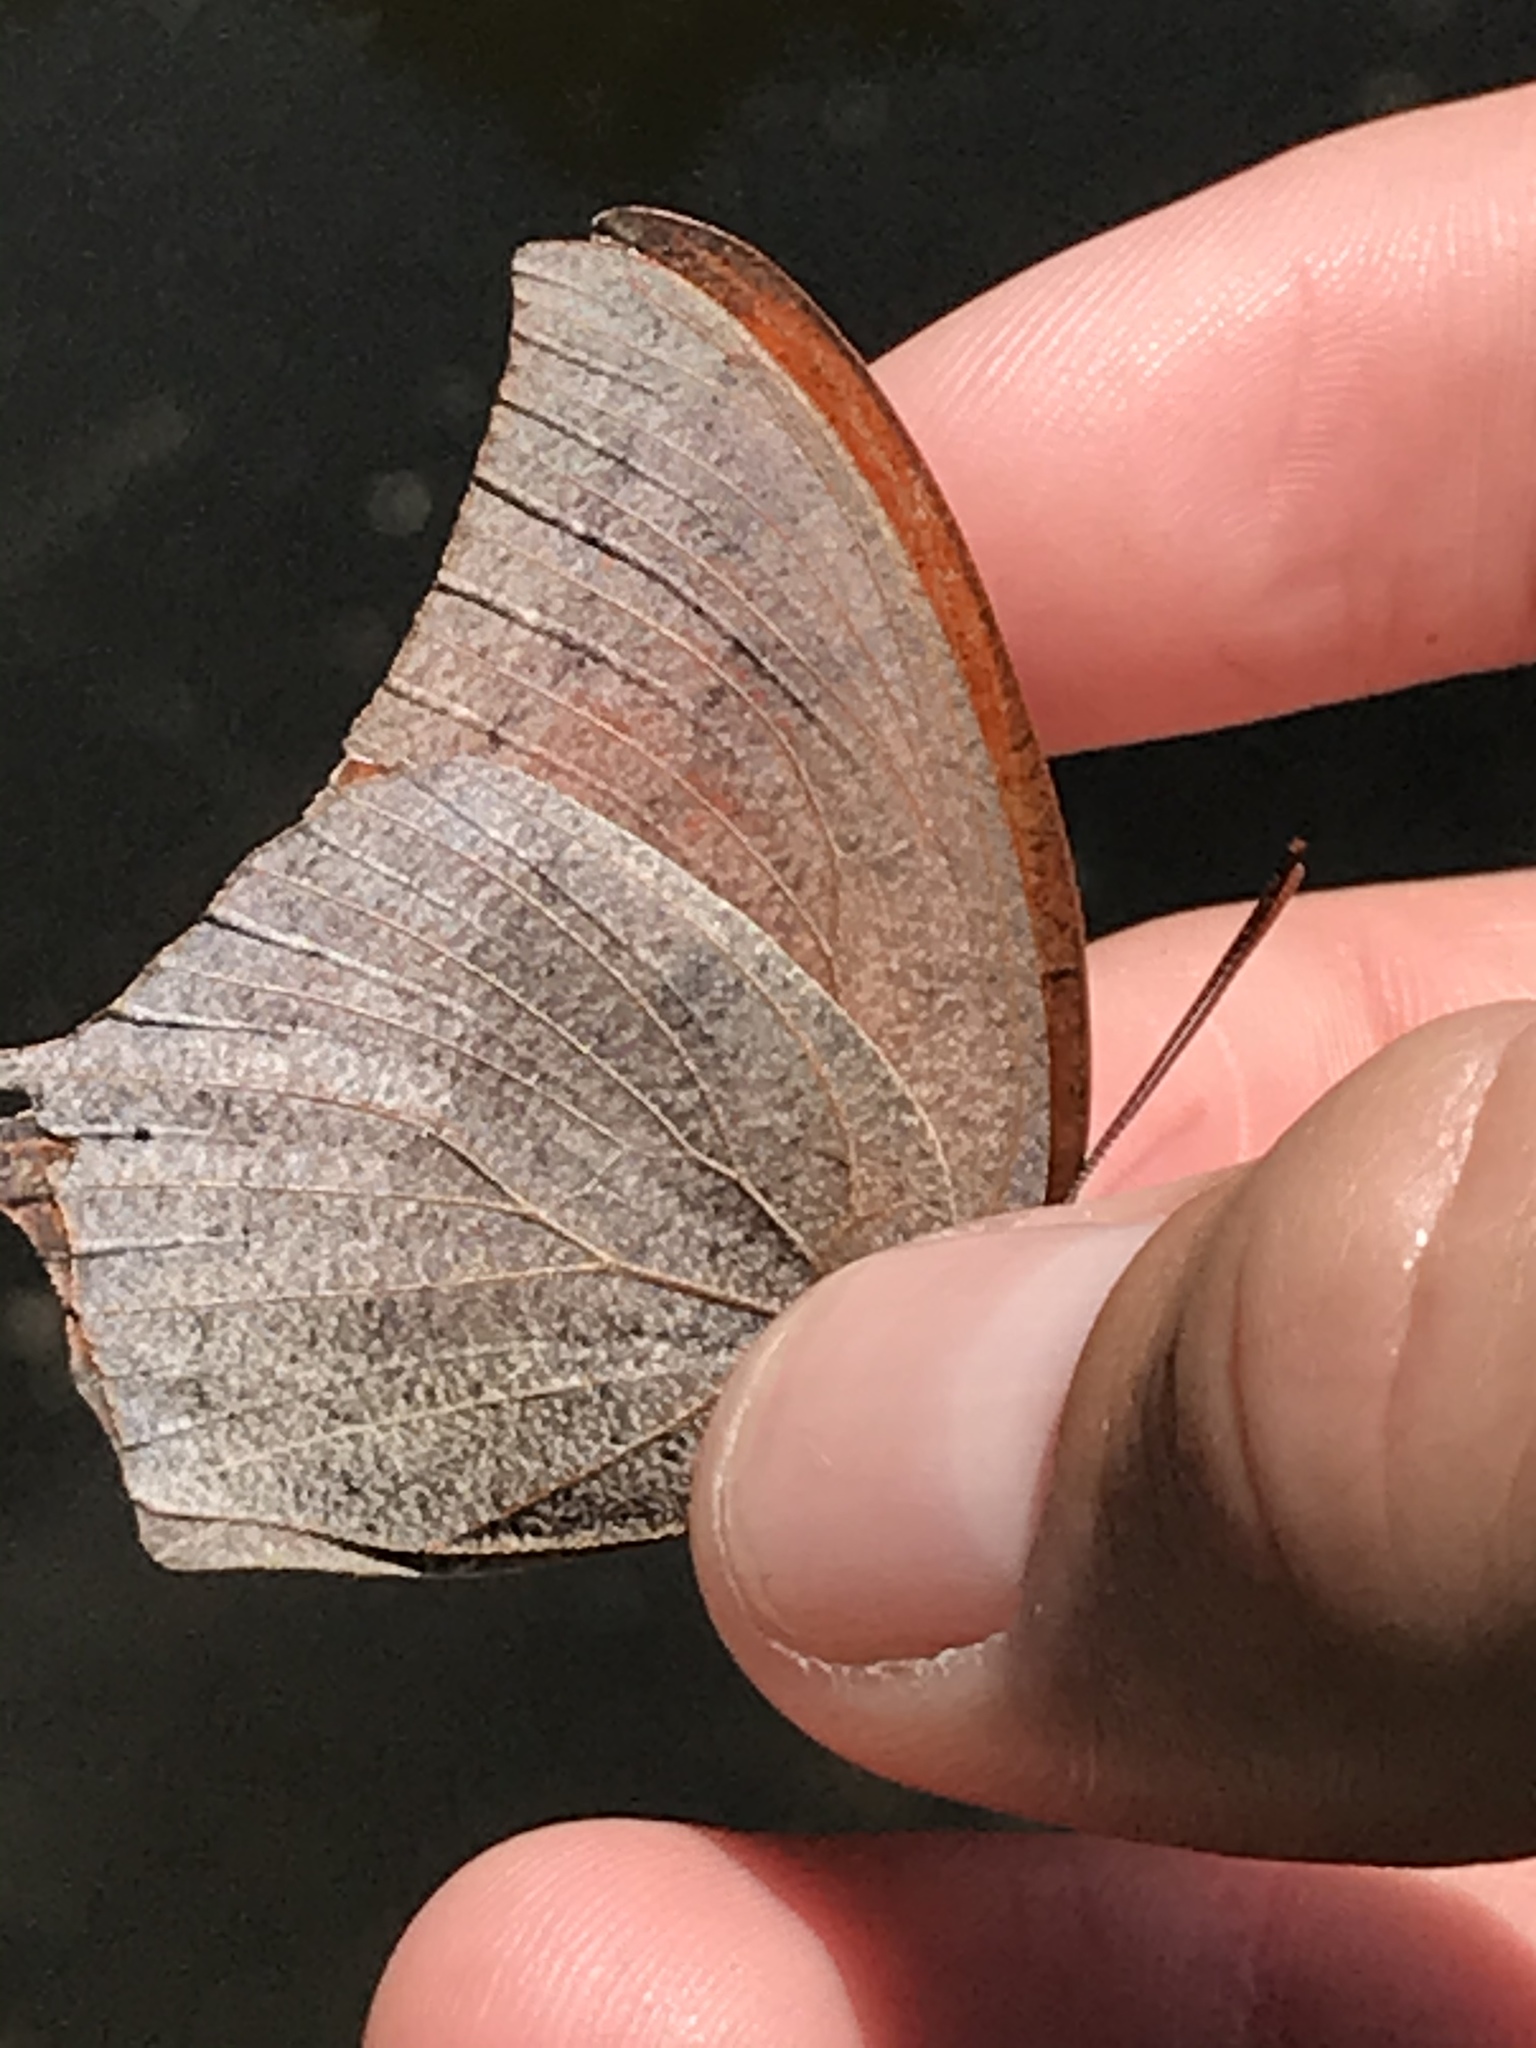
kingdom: Animalia
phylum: Arthropoda
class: Insecta
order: Lepidoptera
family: Nymphalidae
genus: Anaea
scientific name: Anaea andria
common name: Goatweed leafwing
